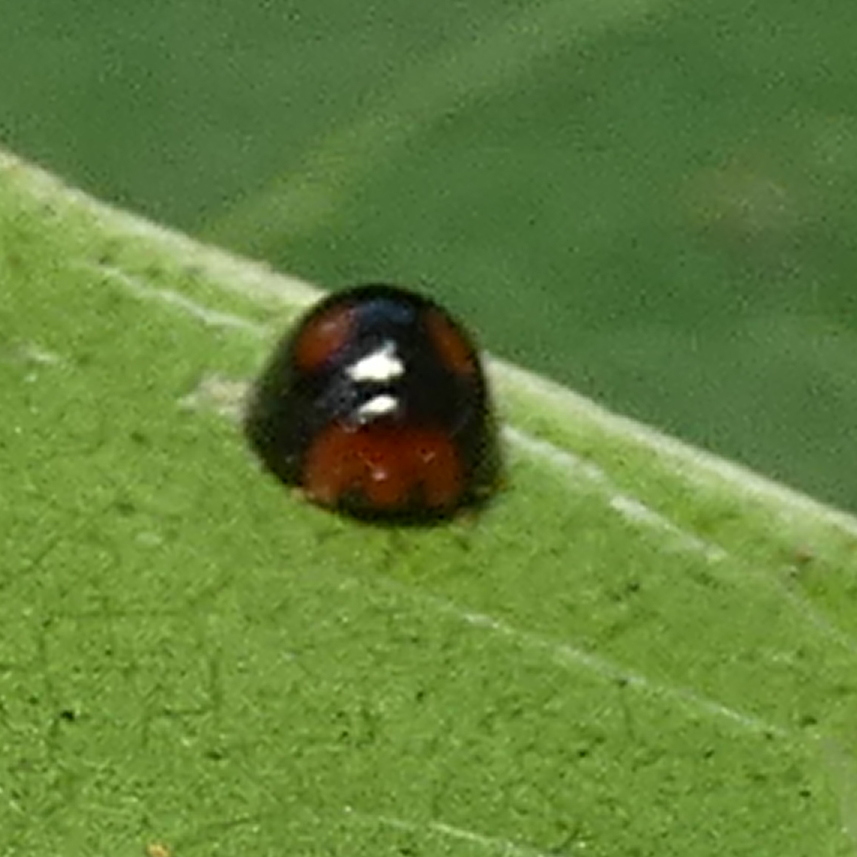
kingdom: Animalia
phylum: Arthropoda
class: Insecta
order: Coleoptera
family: Coccinellidae
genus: Cryptognatha
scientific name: Cryptognatha
